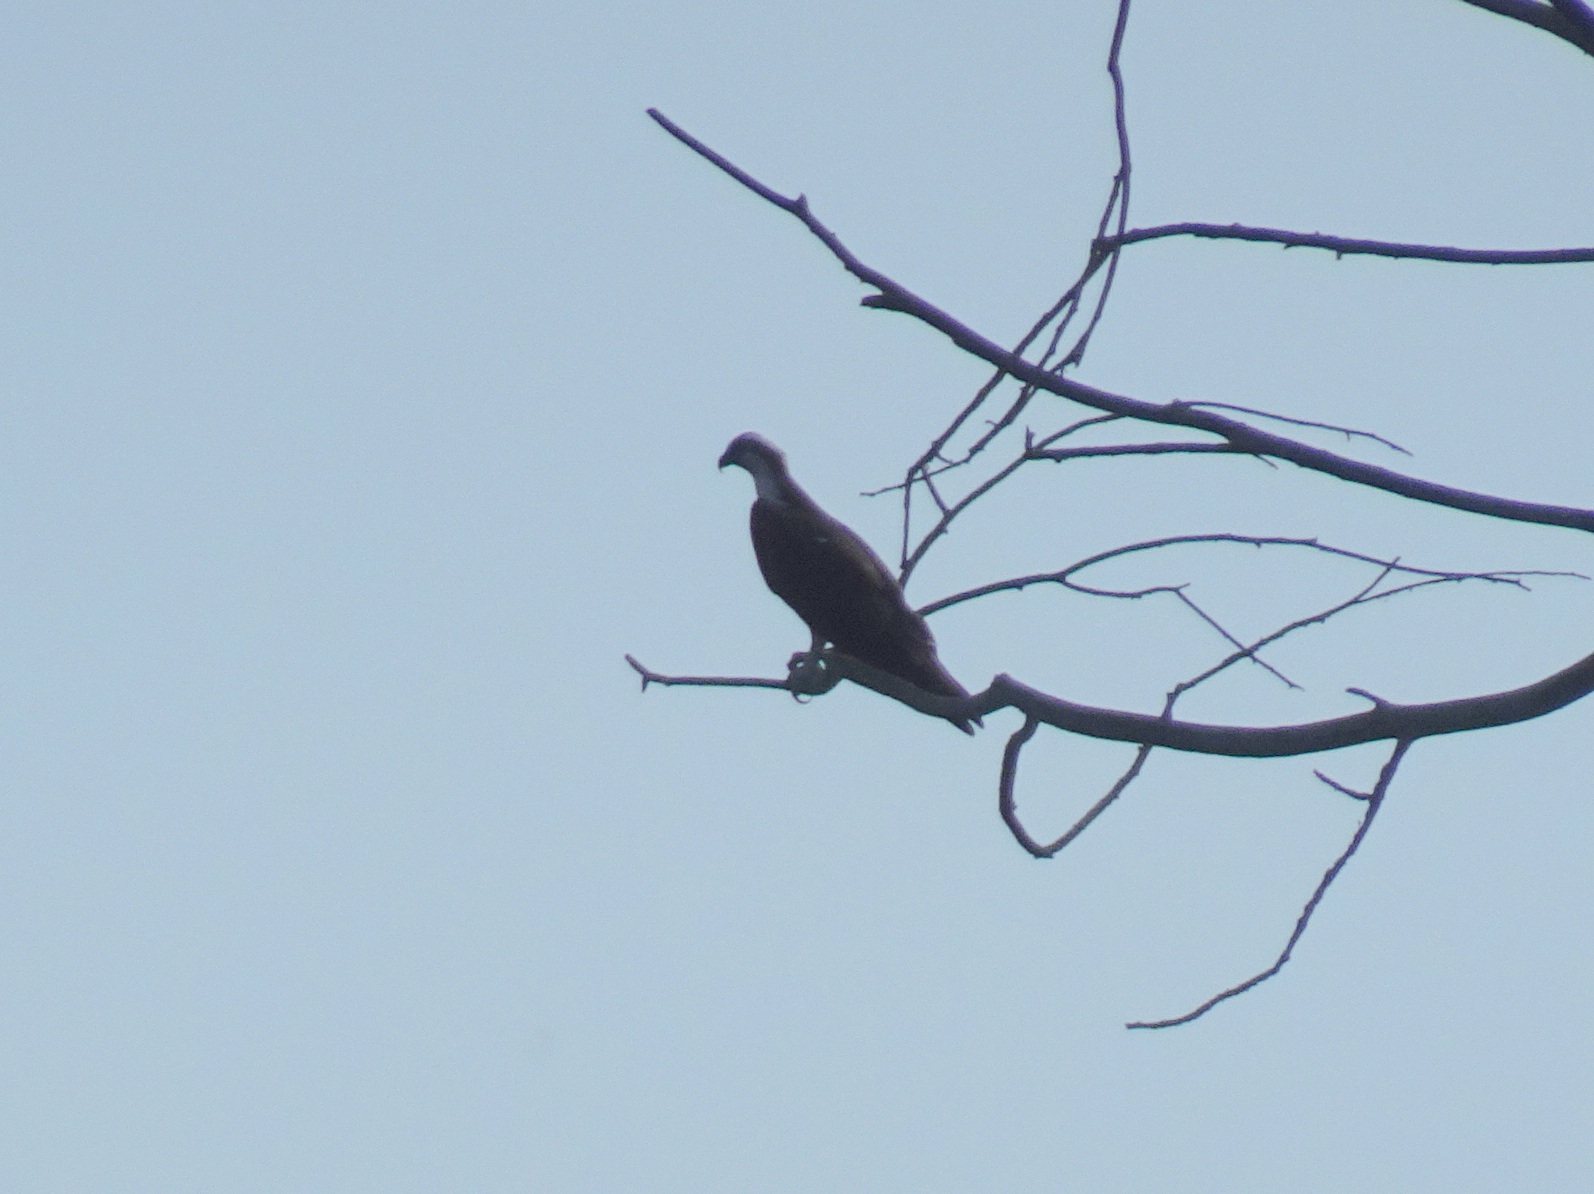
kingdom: Animalia
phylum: Chordata
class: Aves
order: Accipitriformes
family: Pandionidae
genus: Pandion
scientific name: Pandion haliaetus
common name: Osprey
